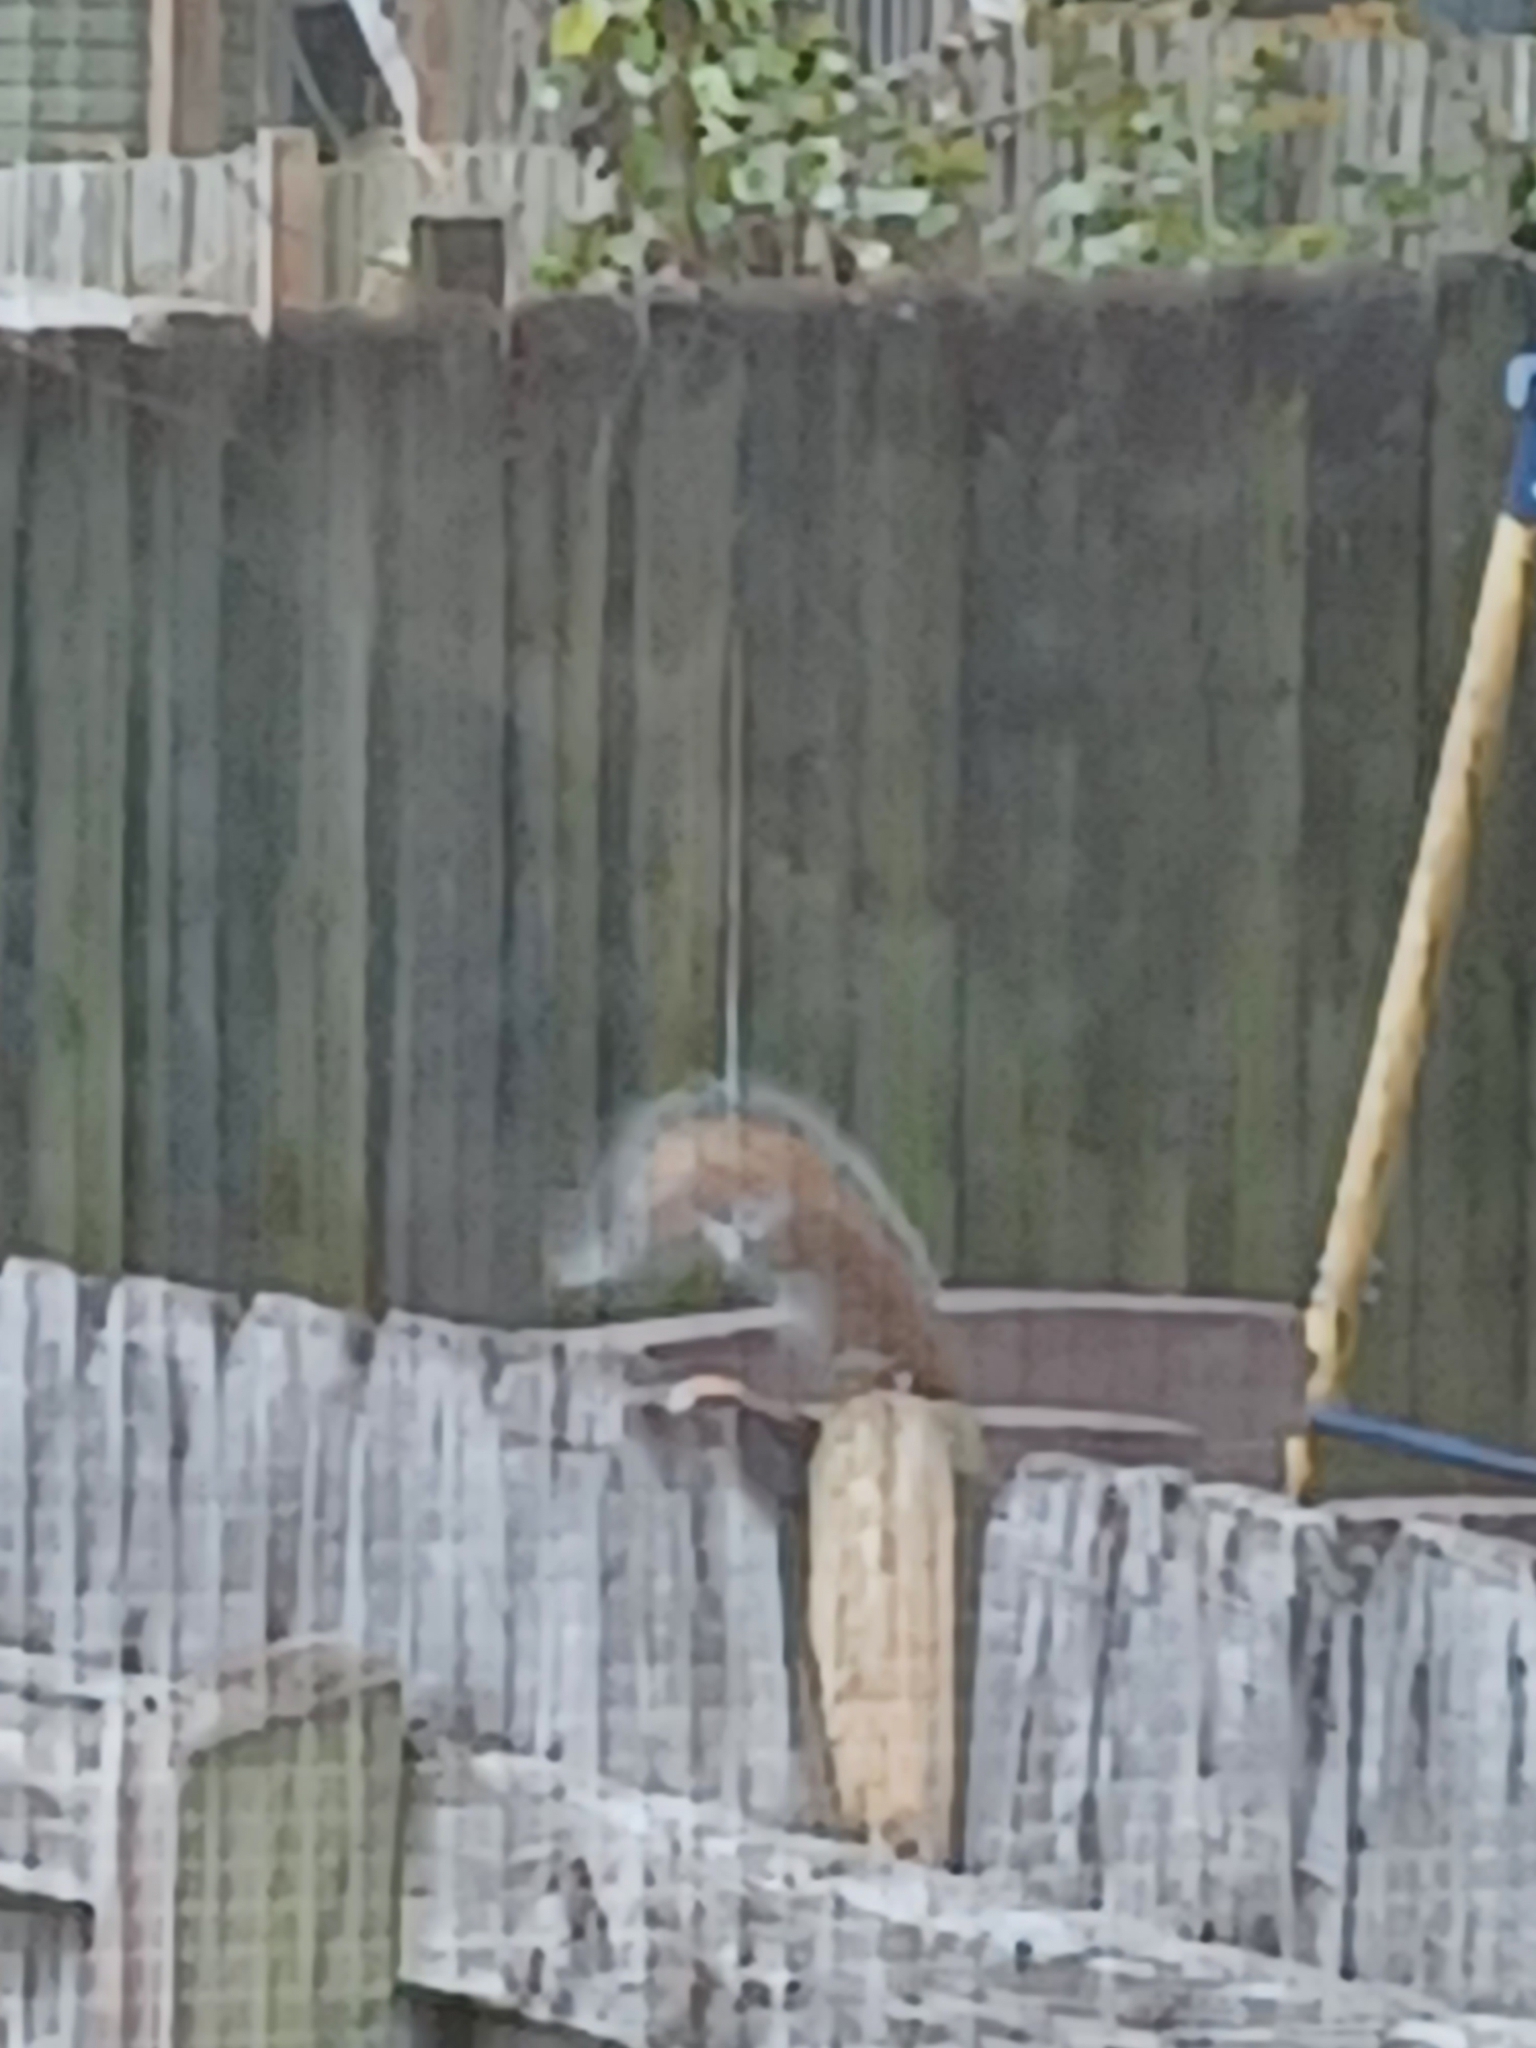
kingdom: Animalia
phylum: Chordata
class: Mammalia
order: Rodentia
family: Sciuridae
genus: Sciurus
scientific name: Sciurus carolinensis
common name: Eastern gray squirrel
